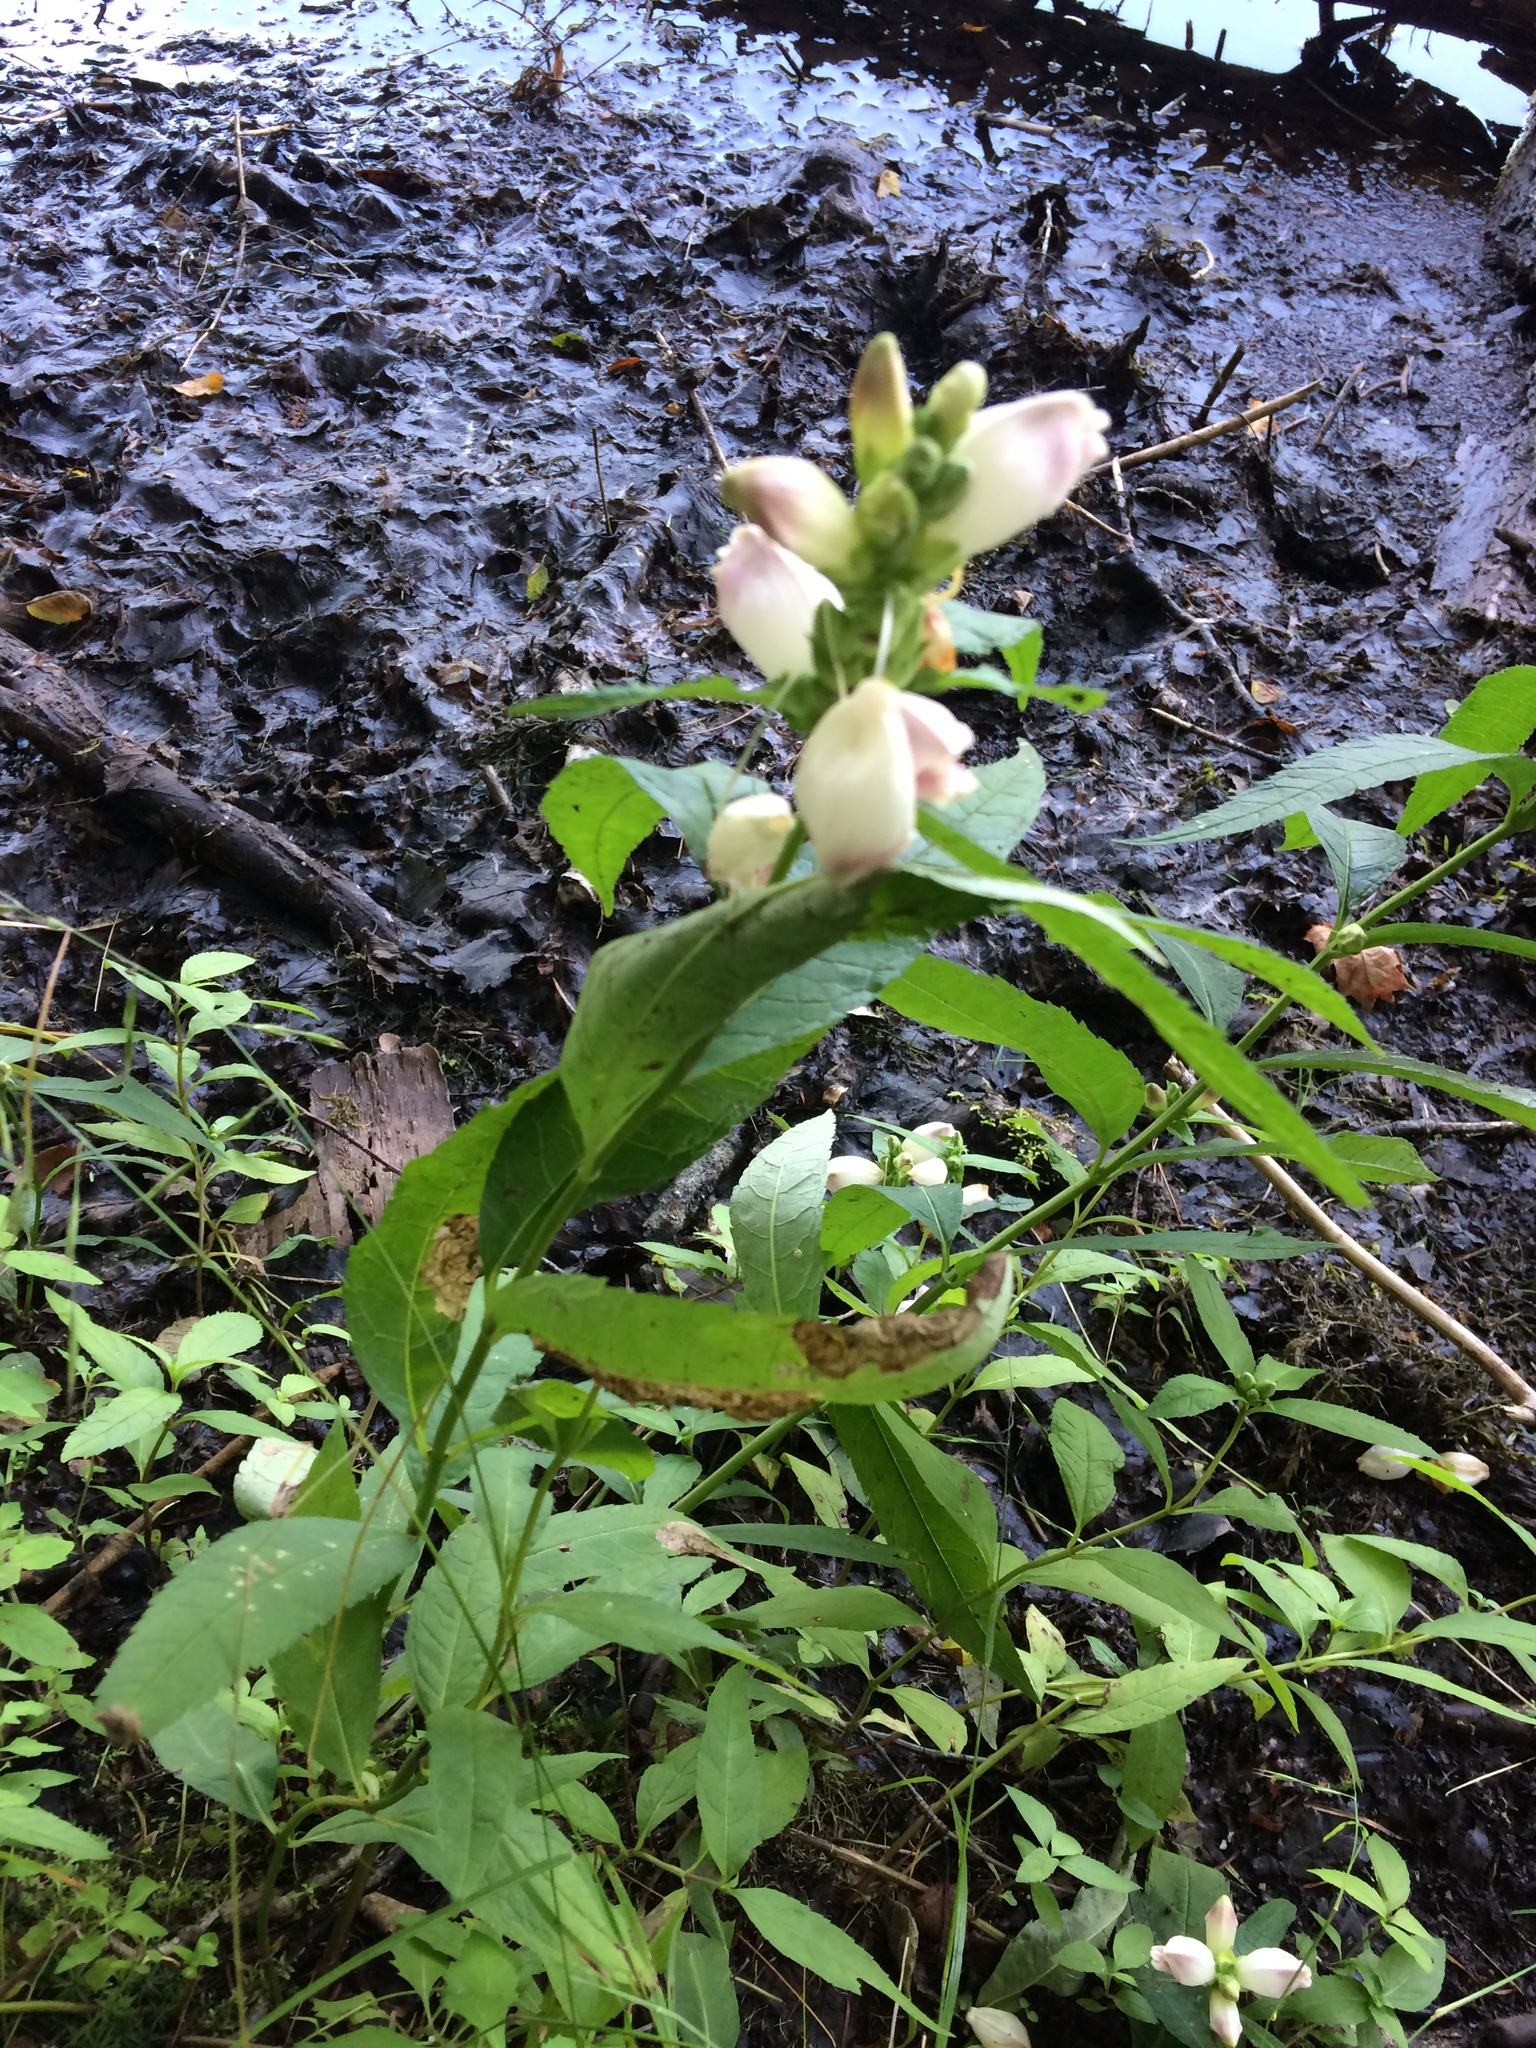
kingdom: Plantae
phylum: Tracheophyta
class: Magnoliopsida
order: Lamiales
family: Plantaginaceae
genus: Chelone
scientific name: Chelone glabra
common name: Snakehead
